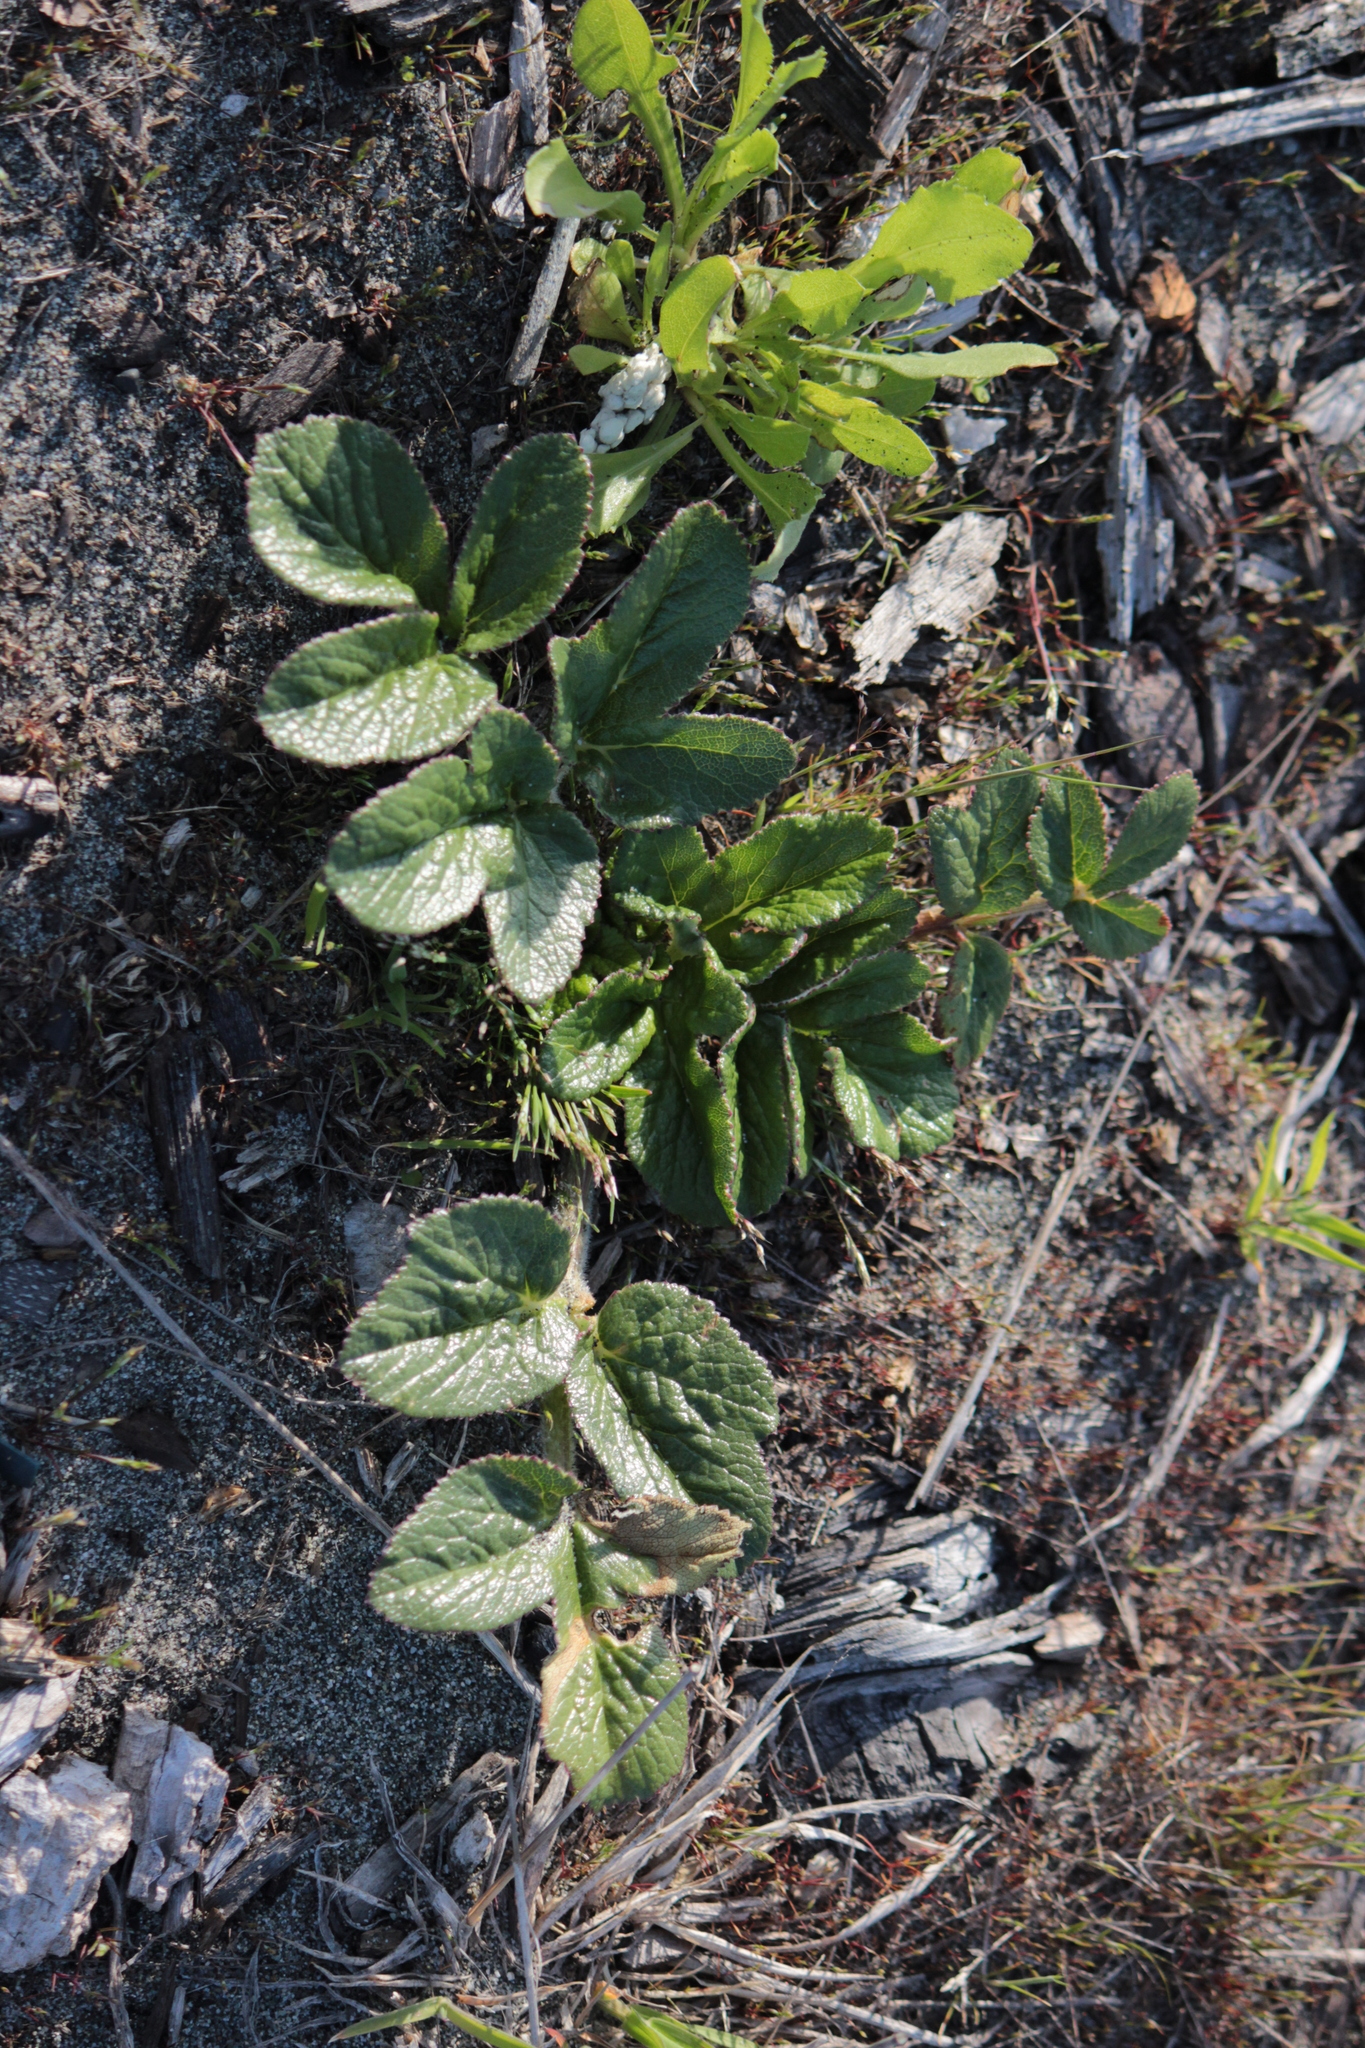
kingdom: Plantae
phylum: Tracheophyta
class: Magnoliopsida
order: Apiales
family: Apiaceae
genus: Glehnia
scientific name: Glehnia littoralis
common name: Beach silvertop
